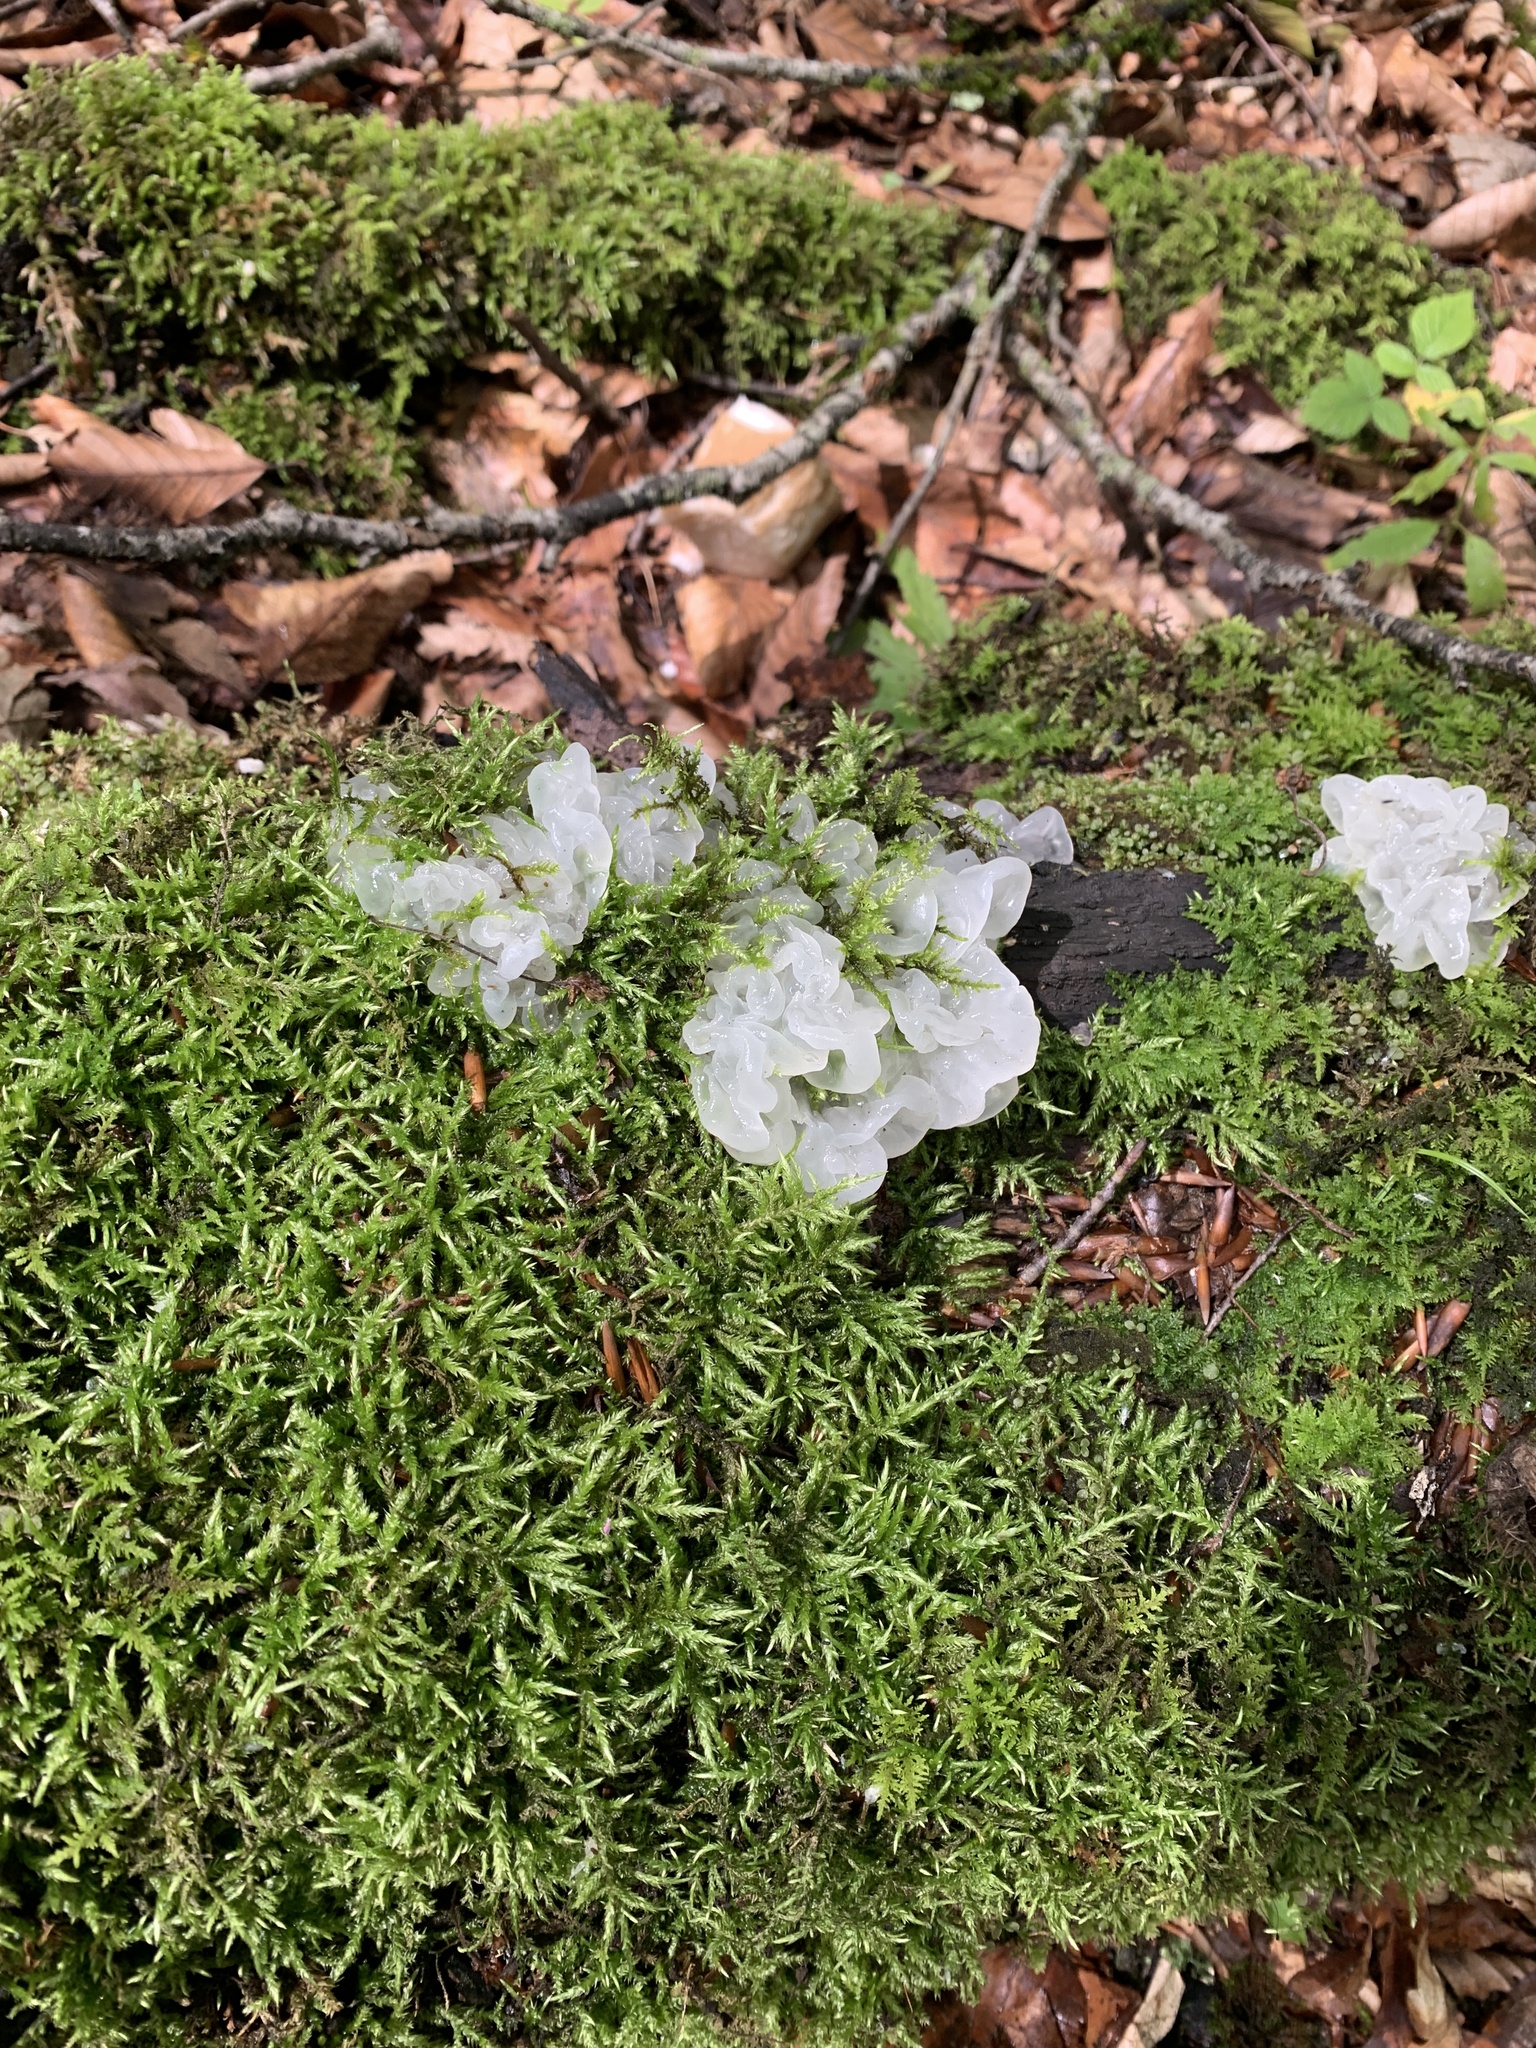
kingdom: Fungi
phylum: Basidiomycota
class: Tremellomycetes
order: Tremellales
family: Tremellaceae
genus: Tremella
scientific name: Tremella fuciformis
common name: Snow fungus
